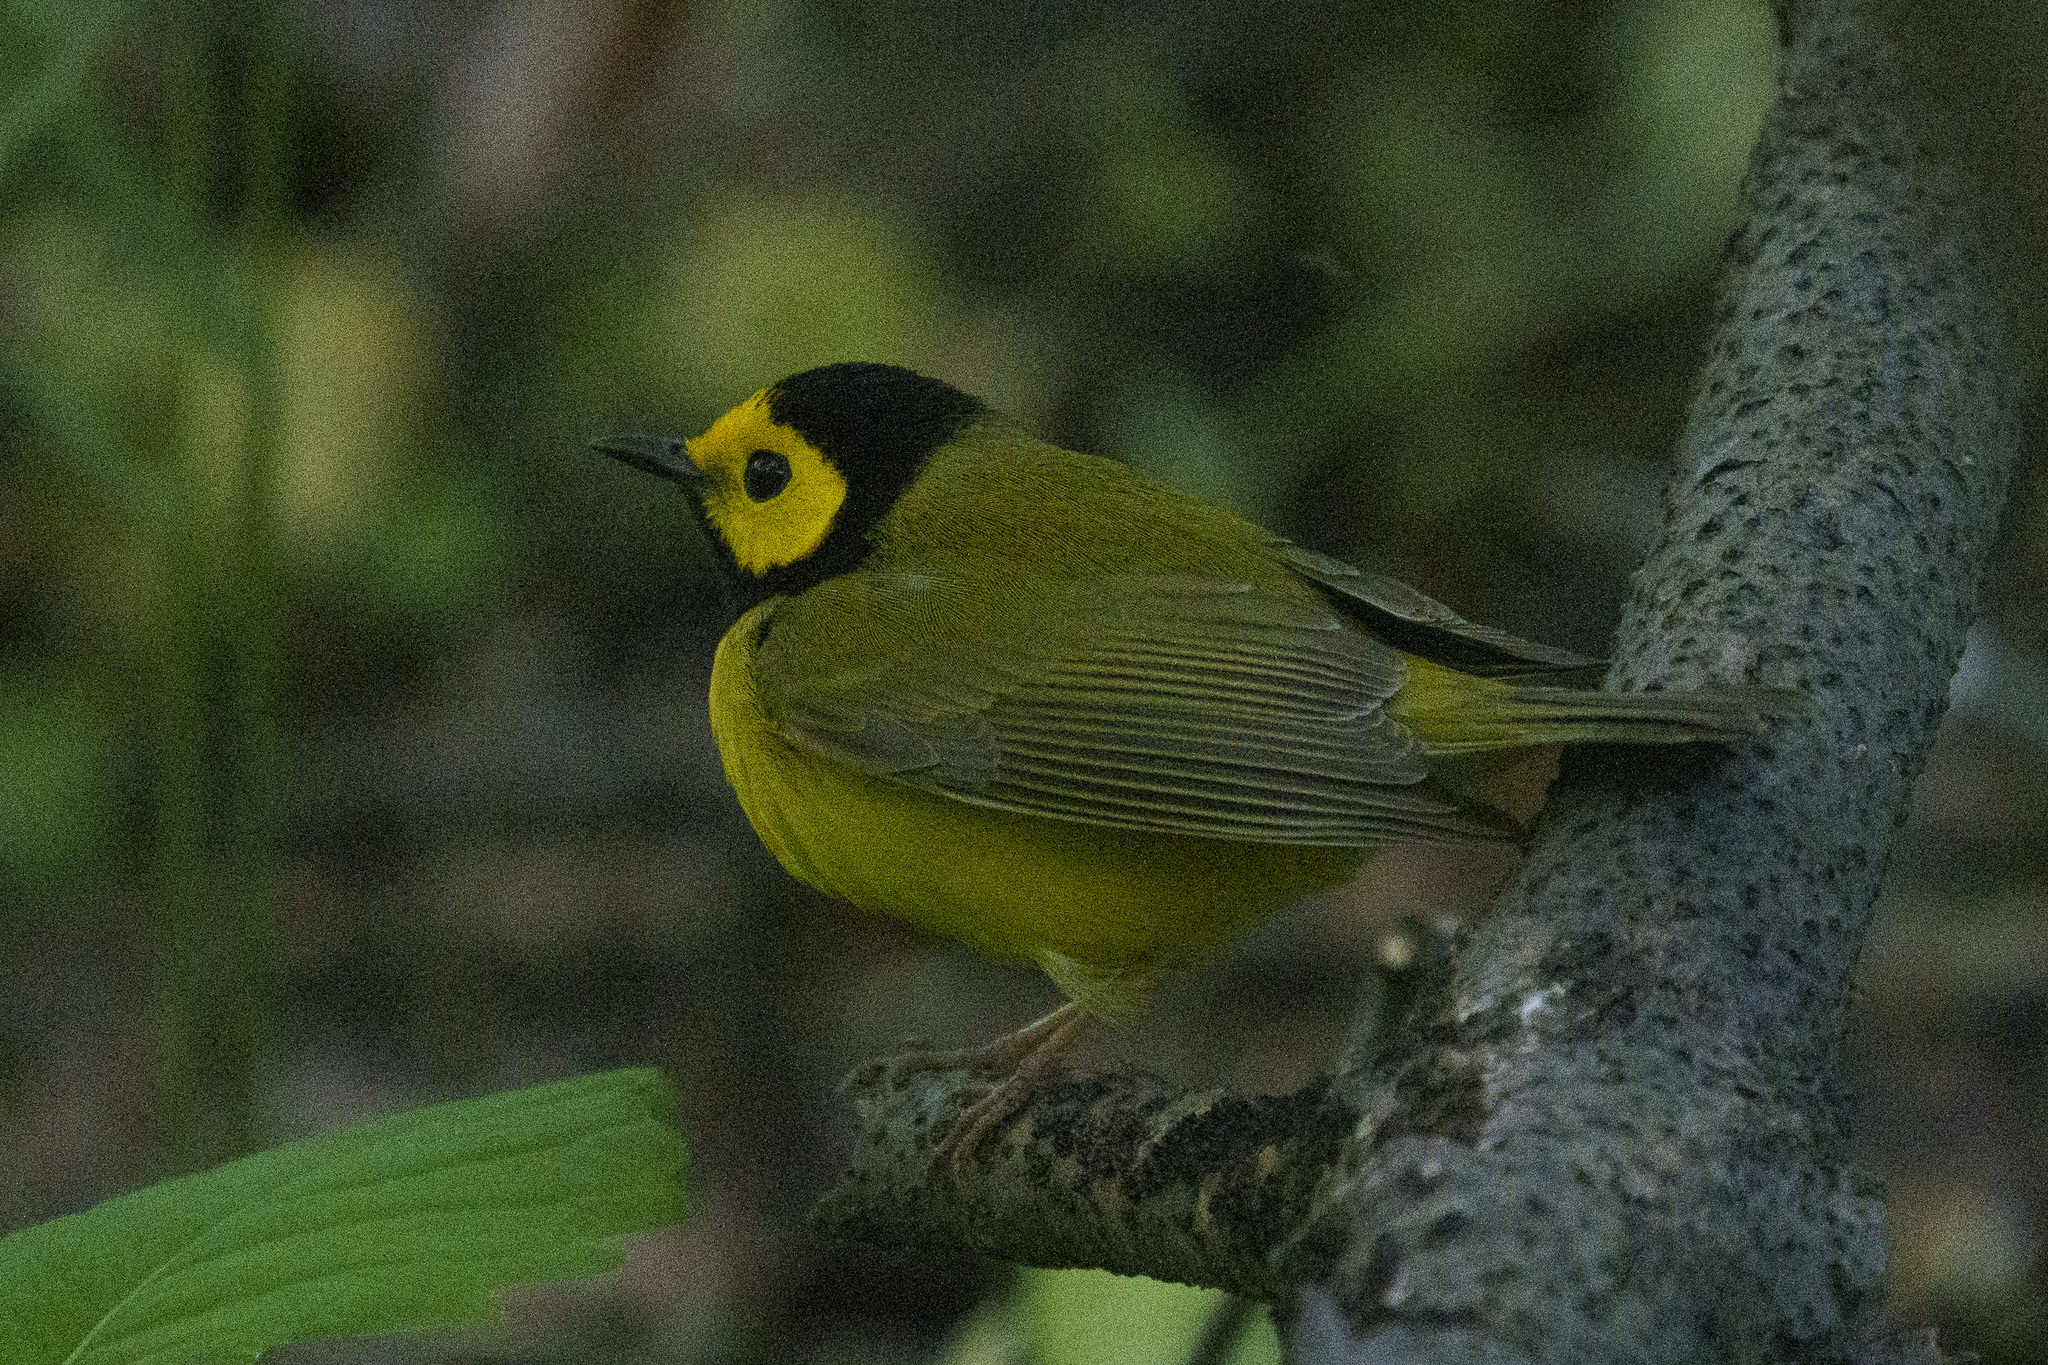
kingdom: Animalia
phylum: Chordata
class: Aves
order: Passeriformes
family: Parulidae
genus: Setophaga
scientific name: Setophaga citrina
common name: Hooded warbler
